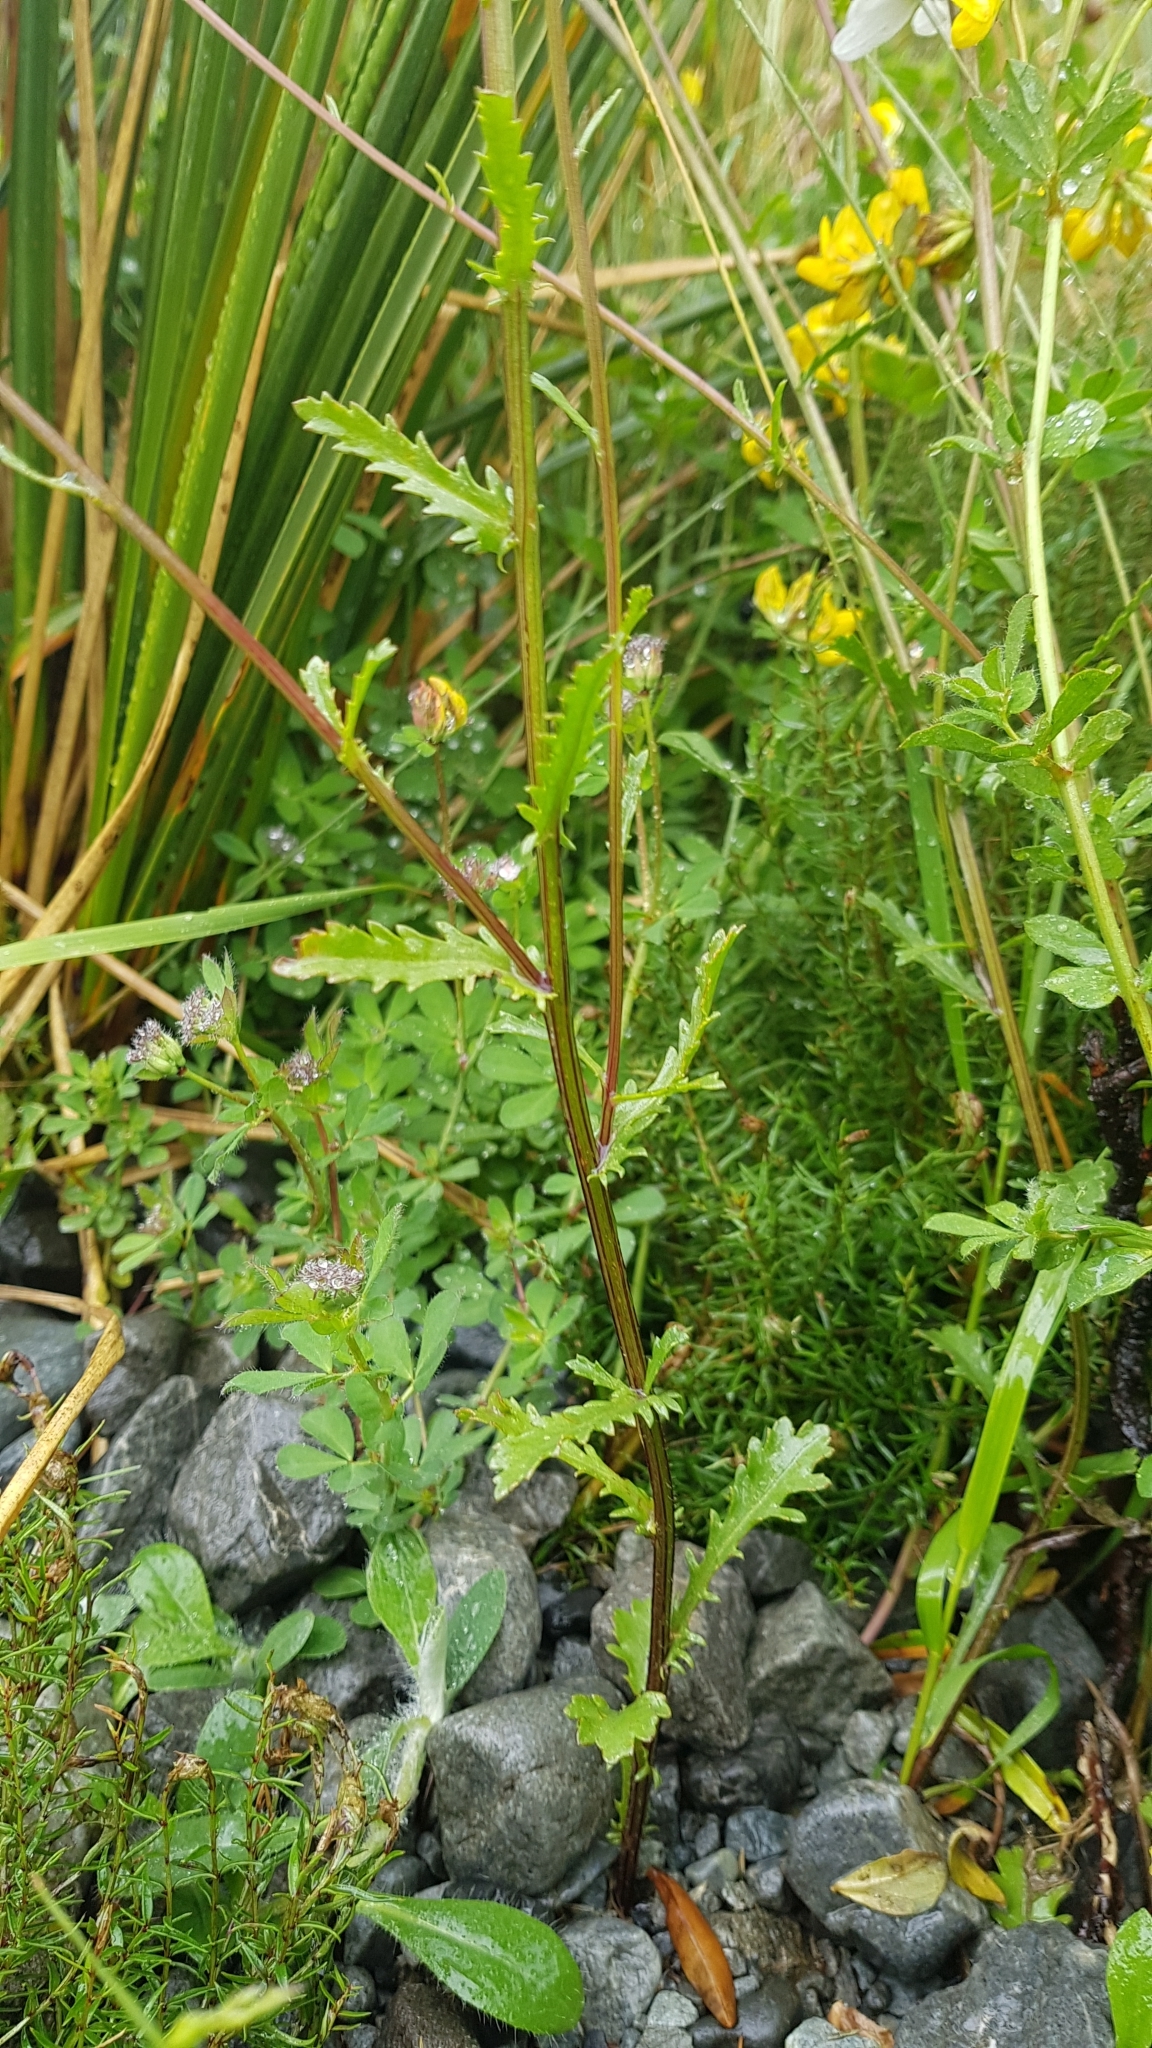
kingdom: Plantae
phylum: Tracheophyta
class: Magnoliopsida
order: Asterales
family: Asteraceae
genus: Leucanthemum
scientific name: Leucanthemum vulgare
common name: Oxeye daisy
